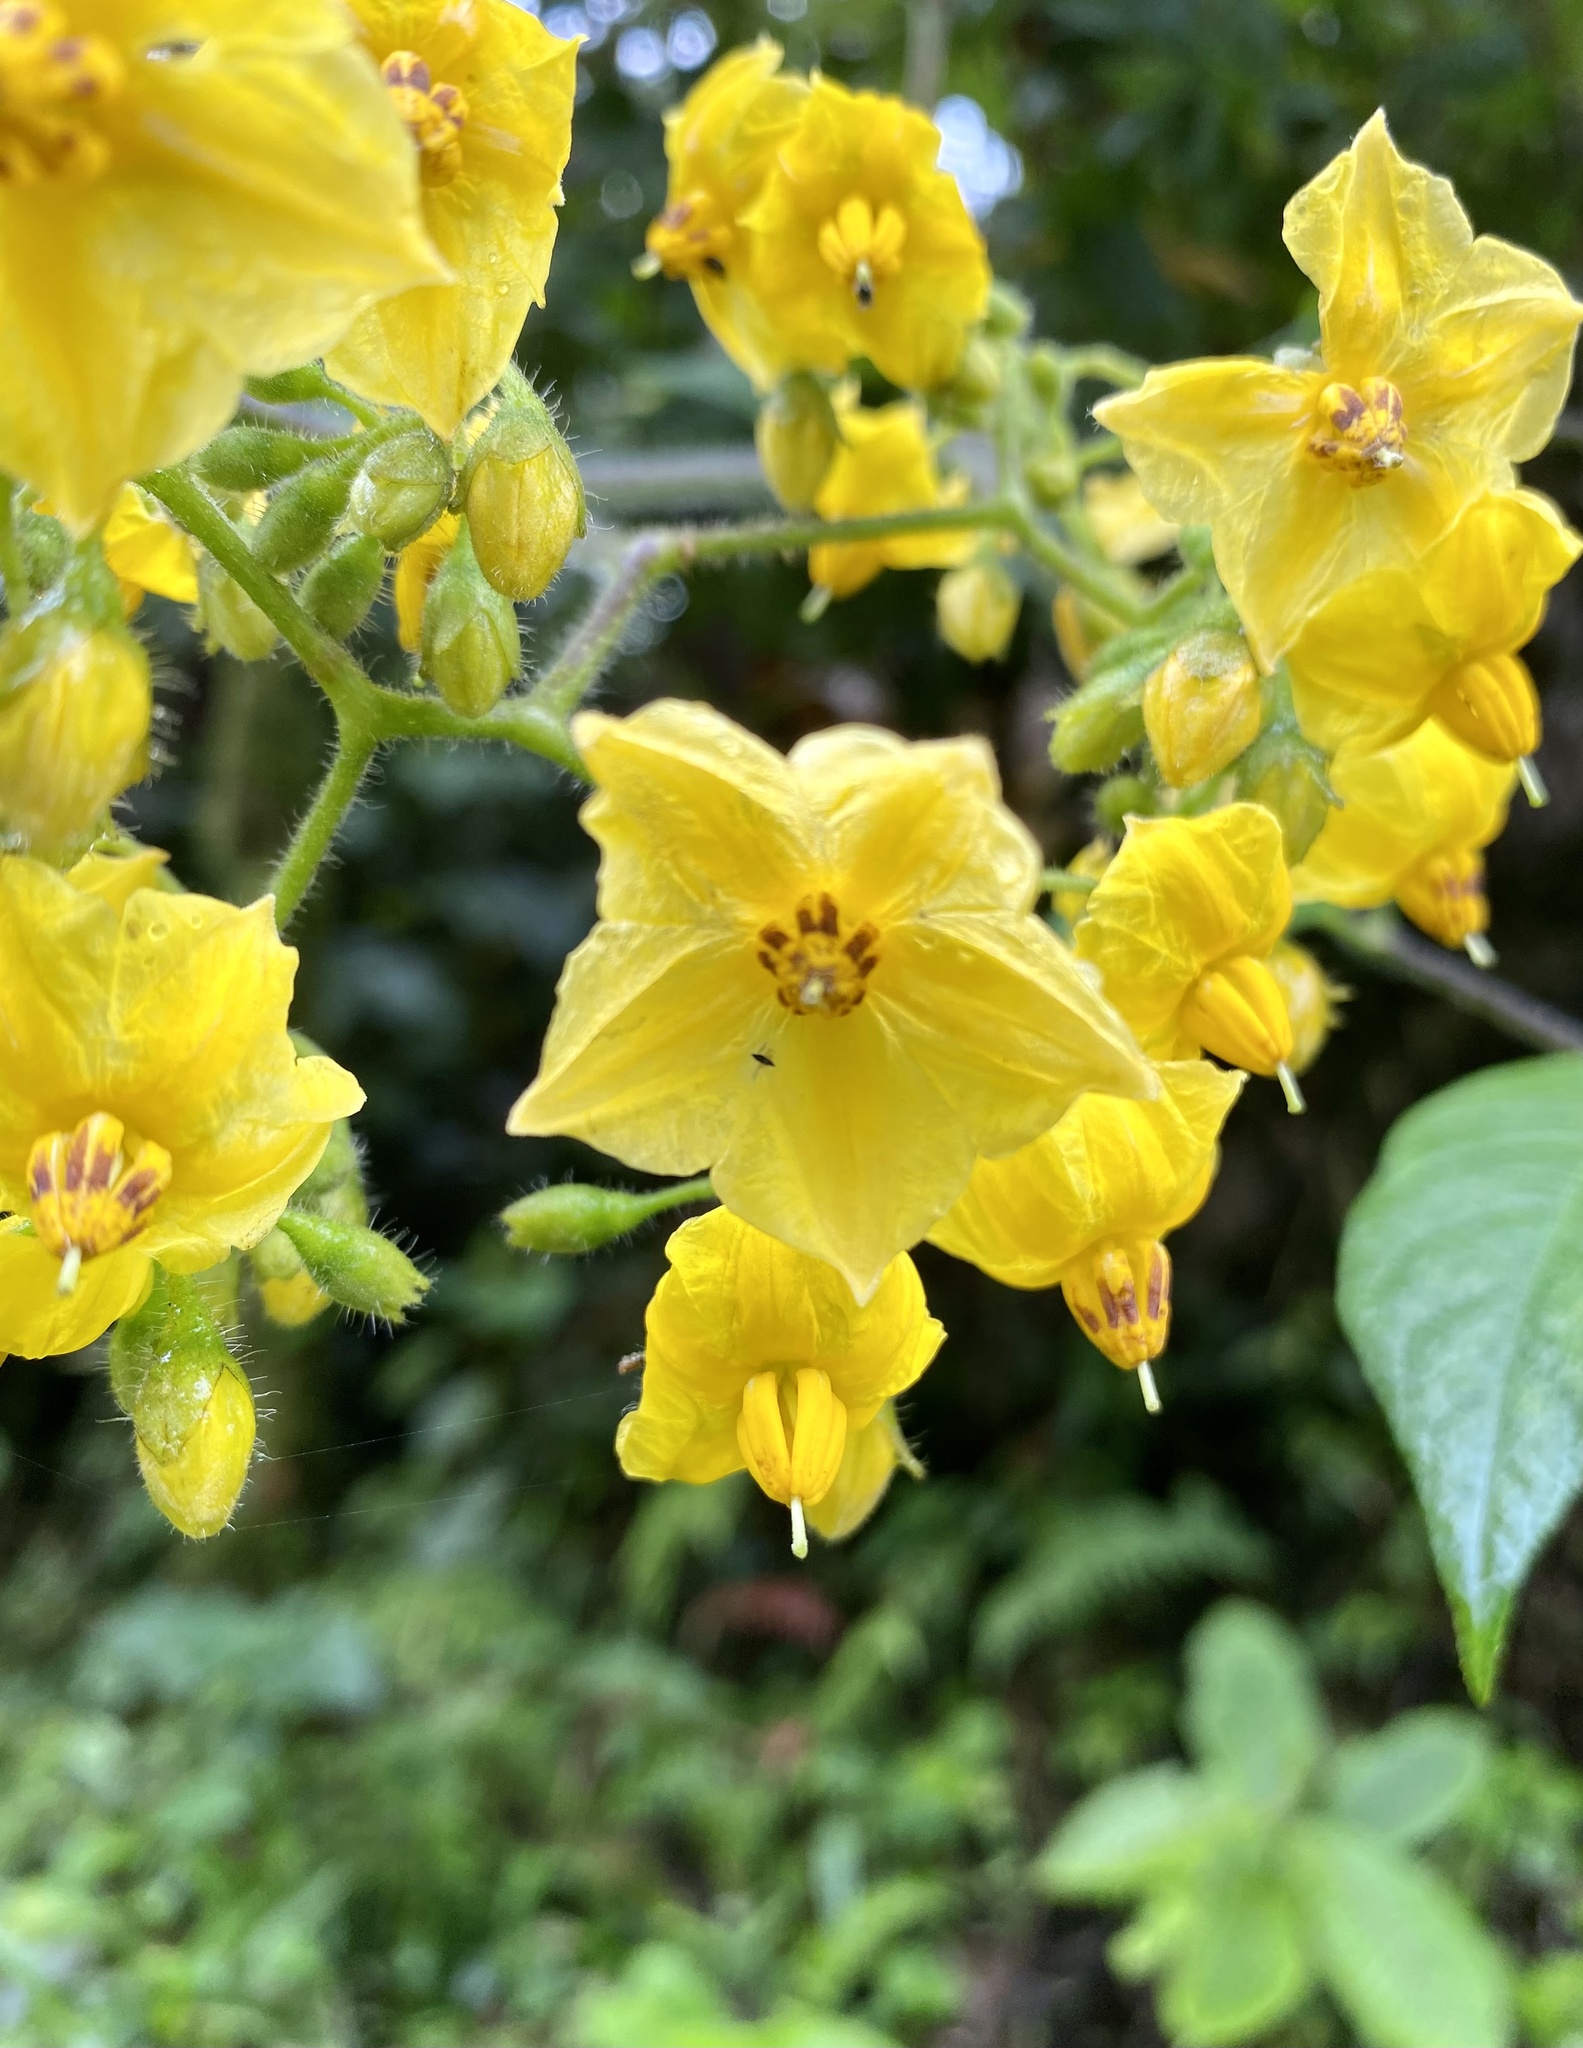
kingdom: Plantae
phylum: Tracheophyta
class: Magnoliopsida
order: Solanales
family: Solanaceae
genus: Solanum
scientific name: Solanum juglandifolium
